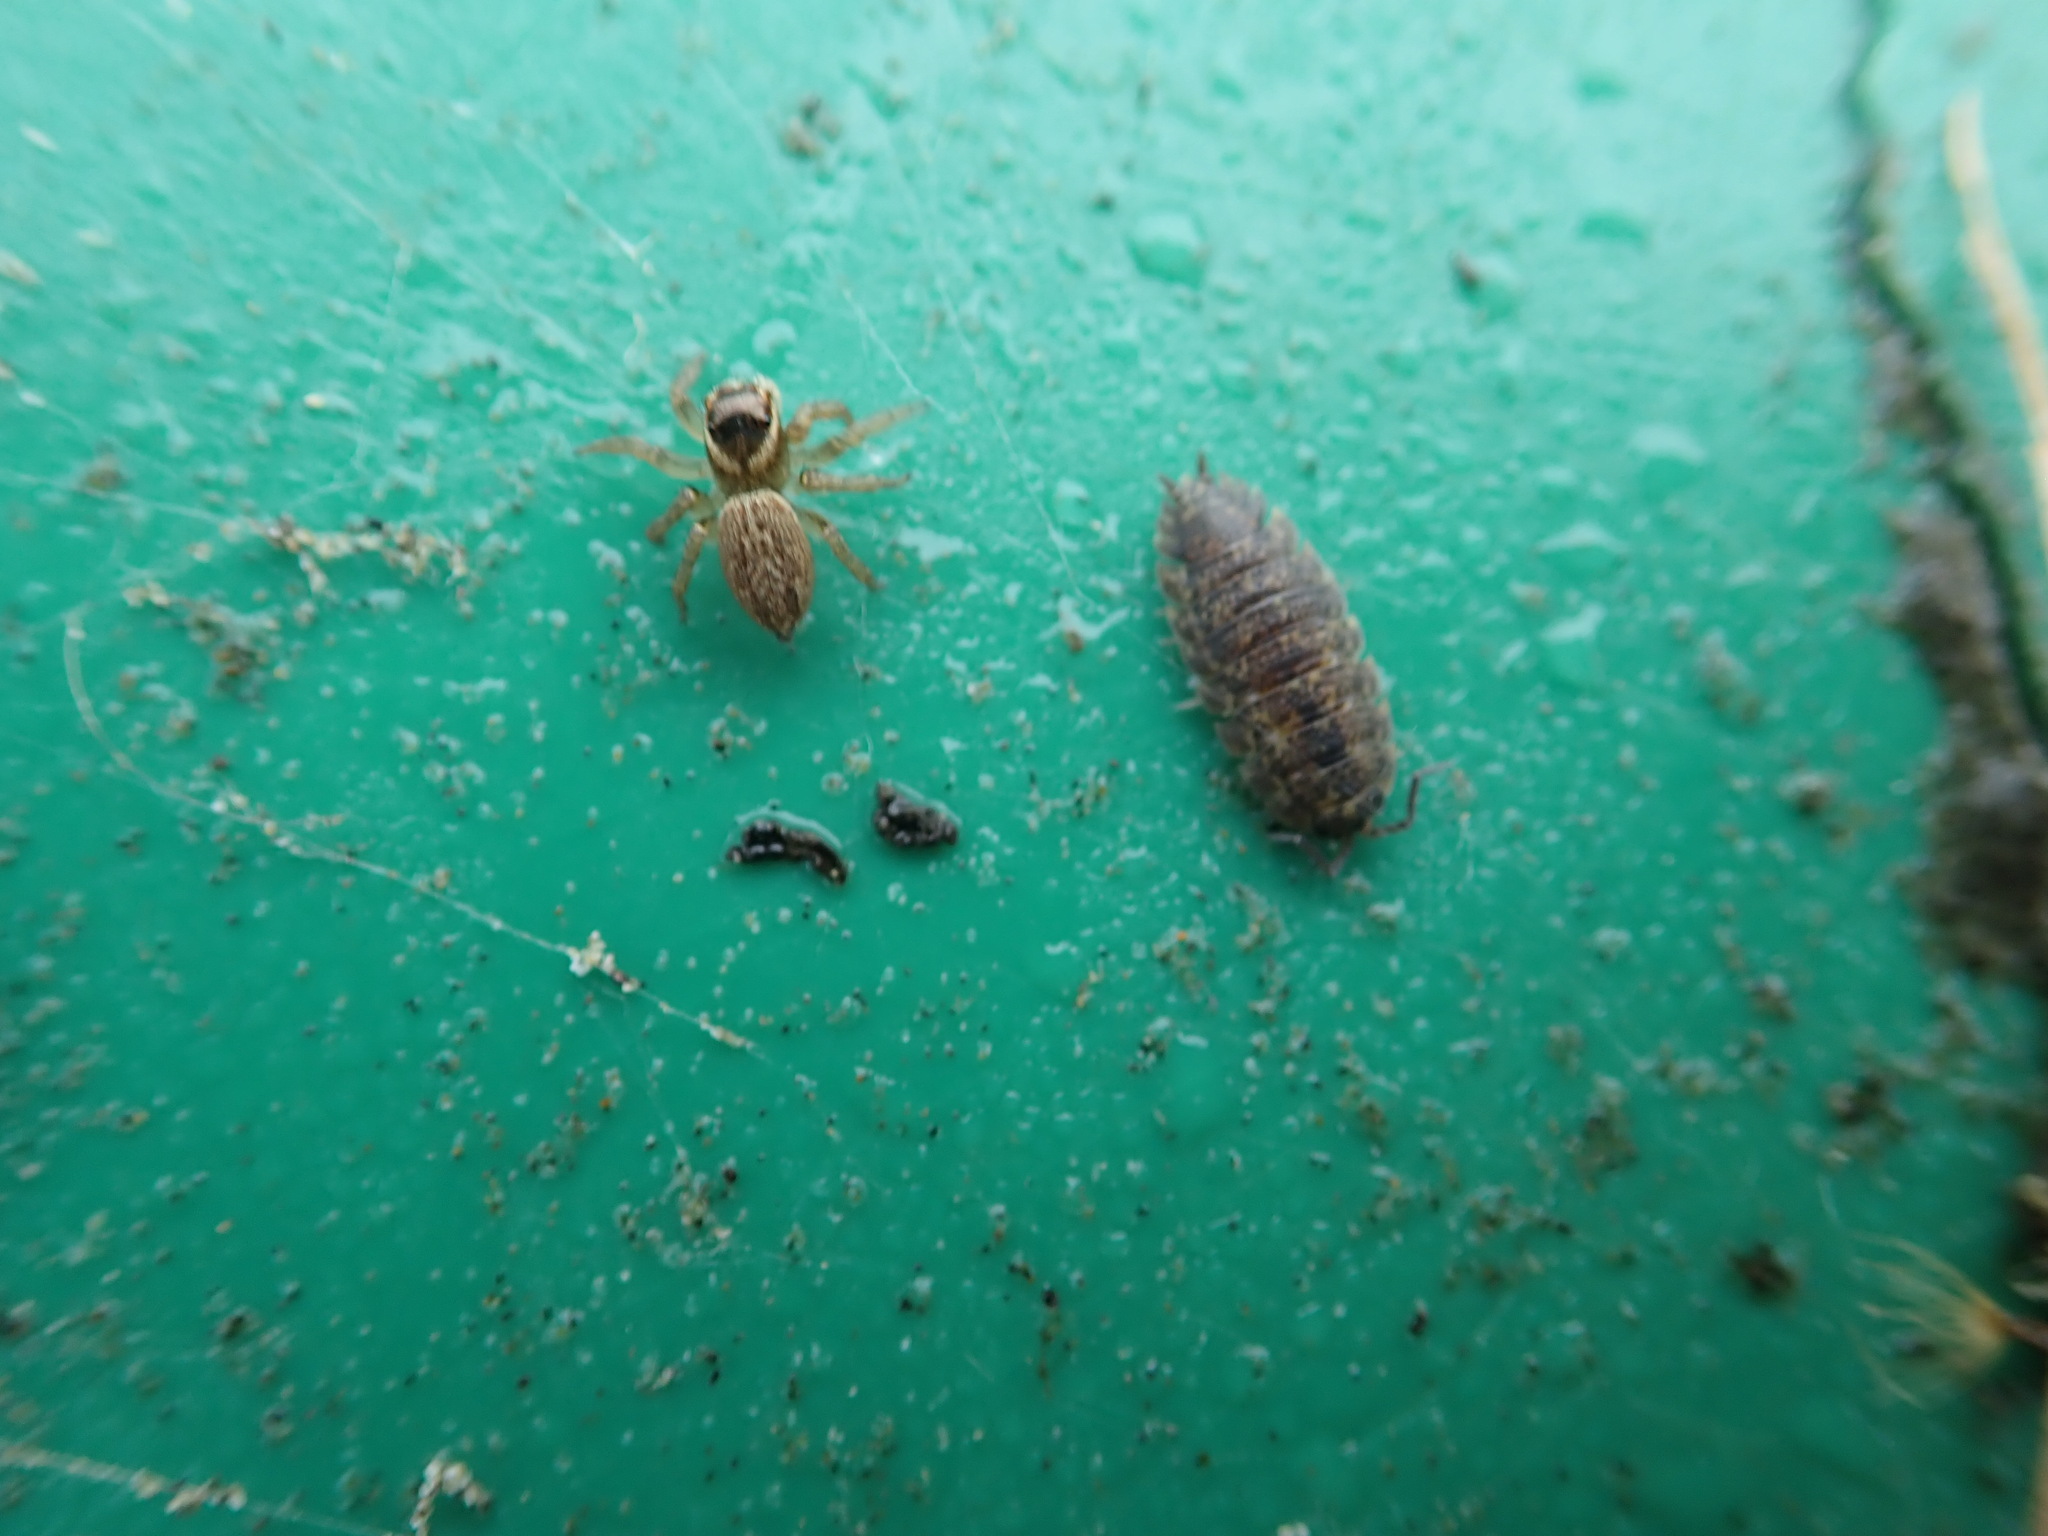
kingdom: Animalia
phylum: Arthropoda
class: Arachnida
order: Araneae
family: Salticidae
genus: Maratus
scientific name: Maratus griseus
